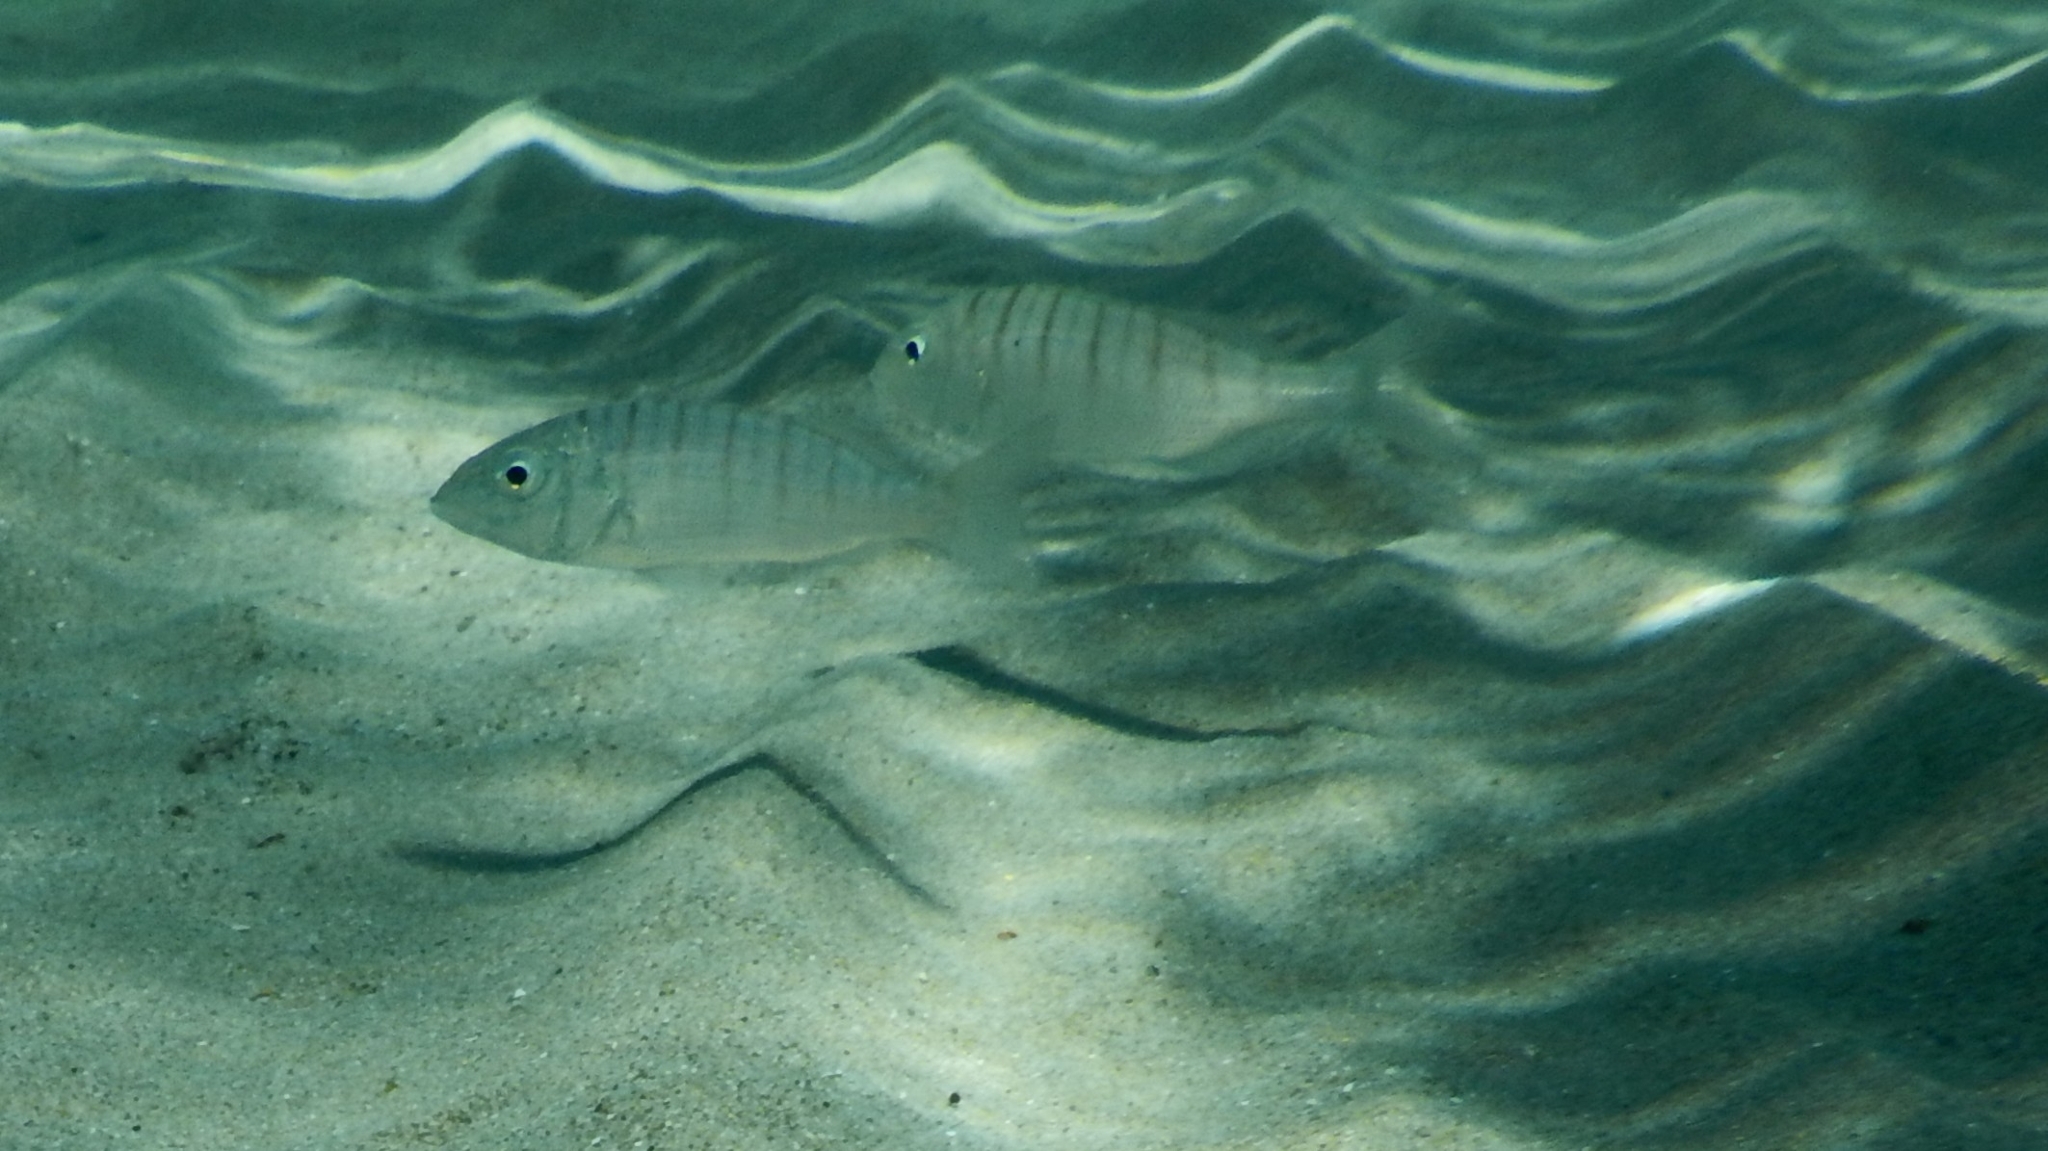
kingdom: Animalia
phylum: Chordata
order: Perciformes
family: Sparidae
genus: Lithognathus
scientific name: Lithognathus mormyrus
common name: Sand steenbras
